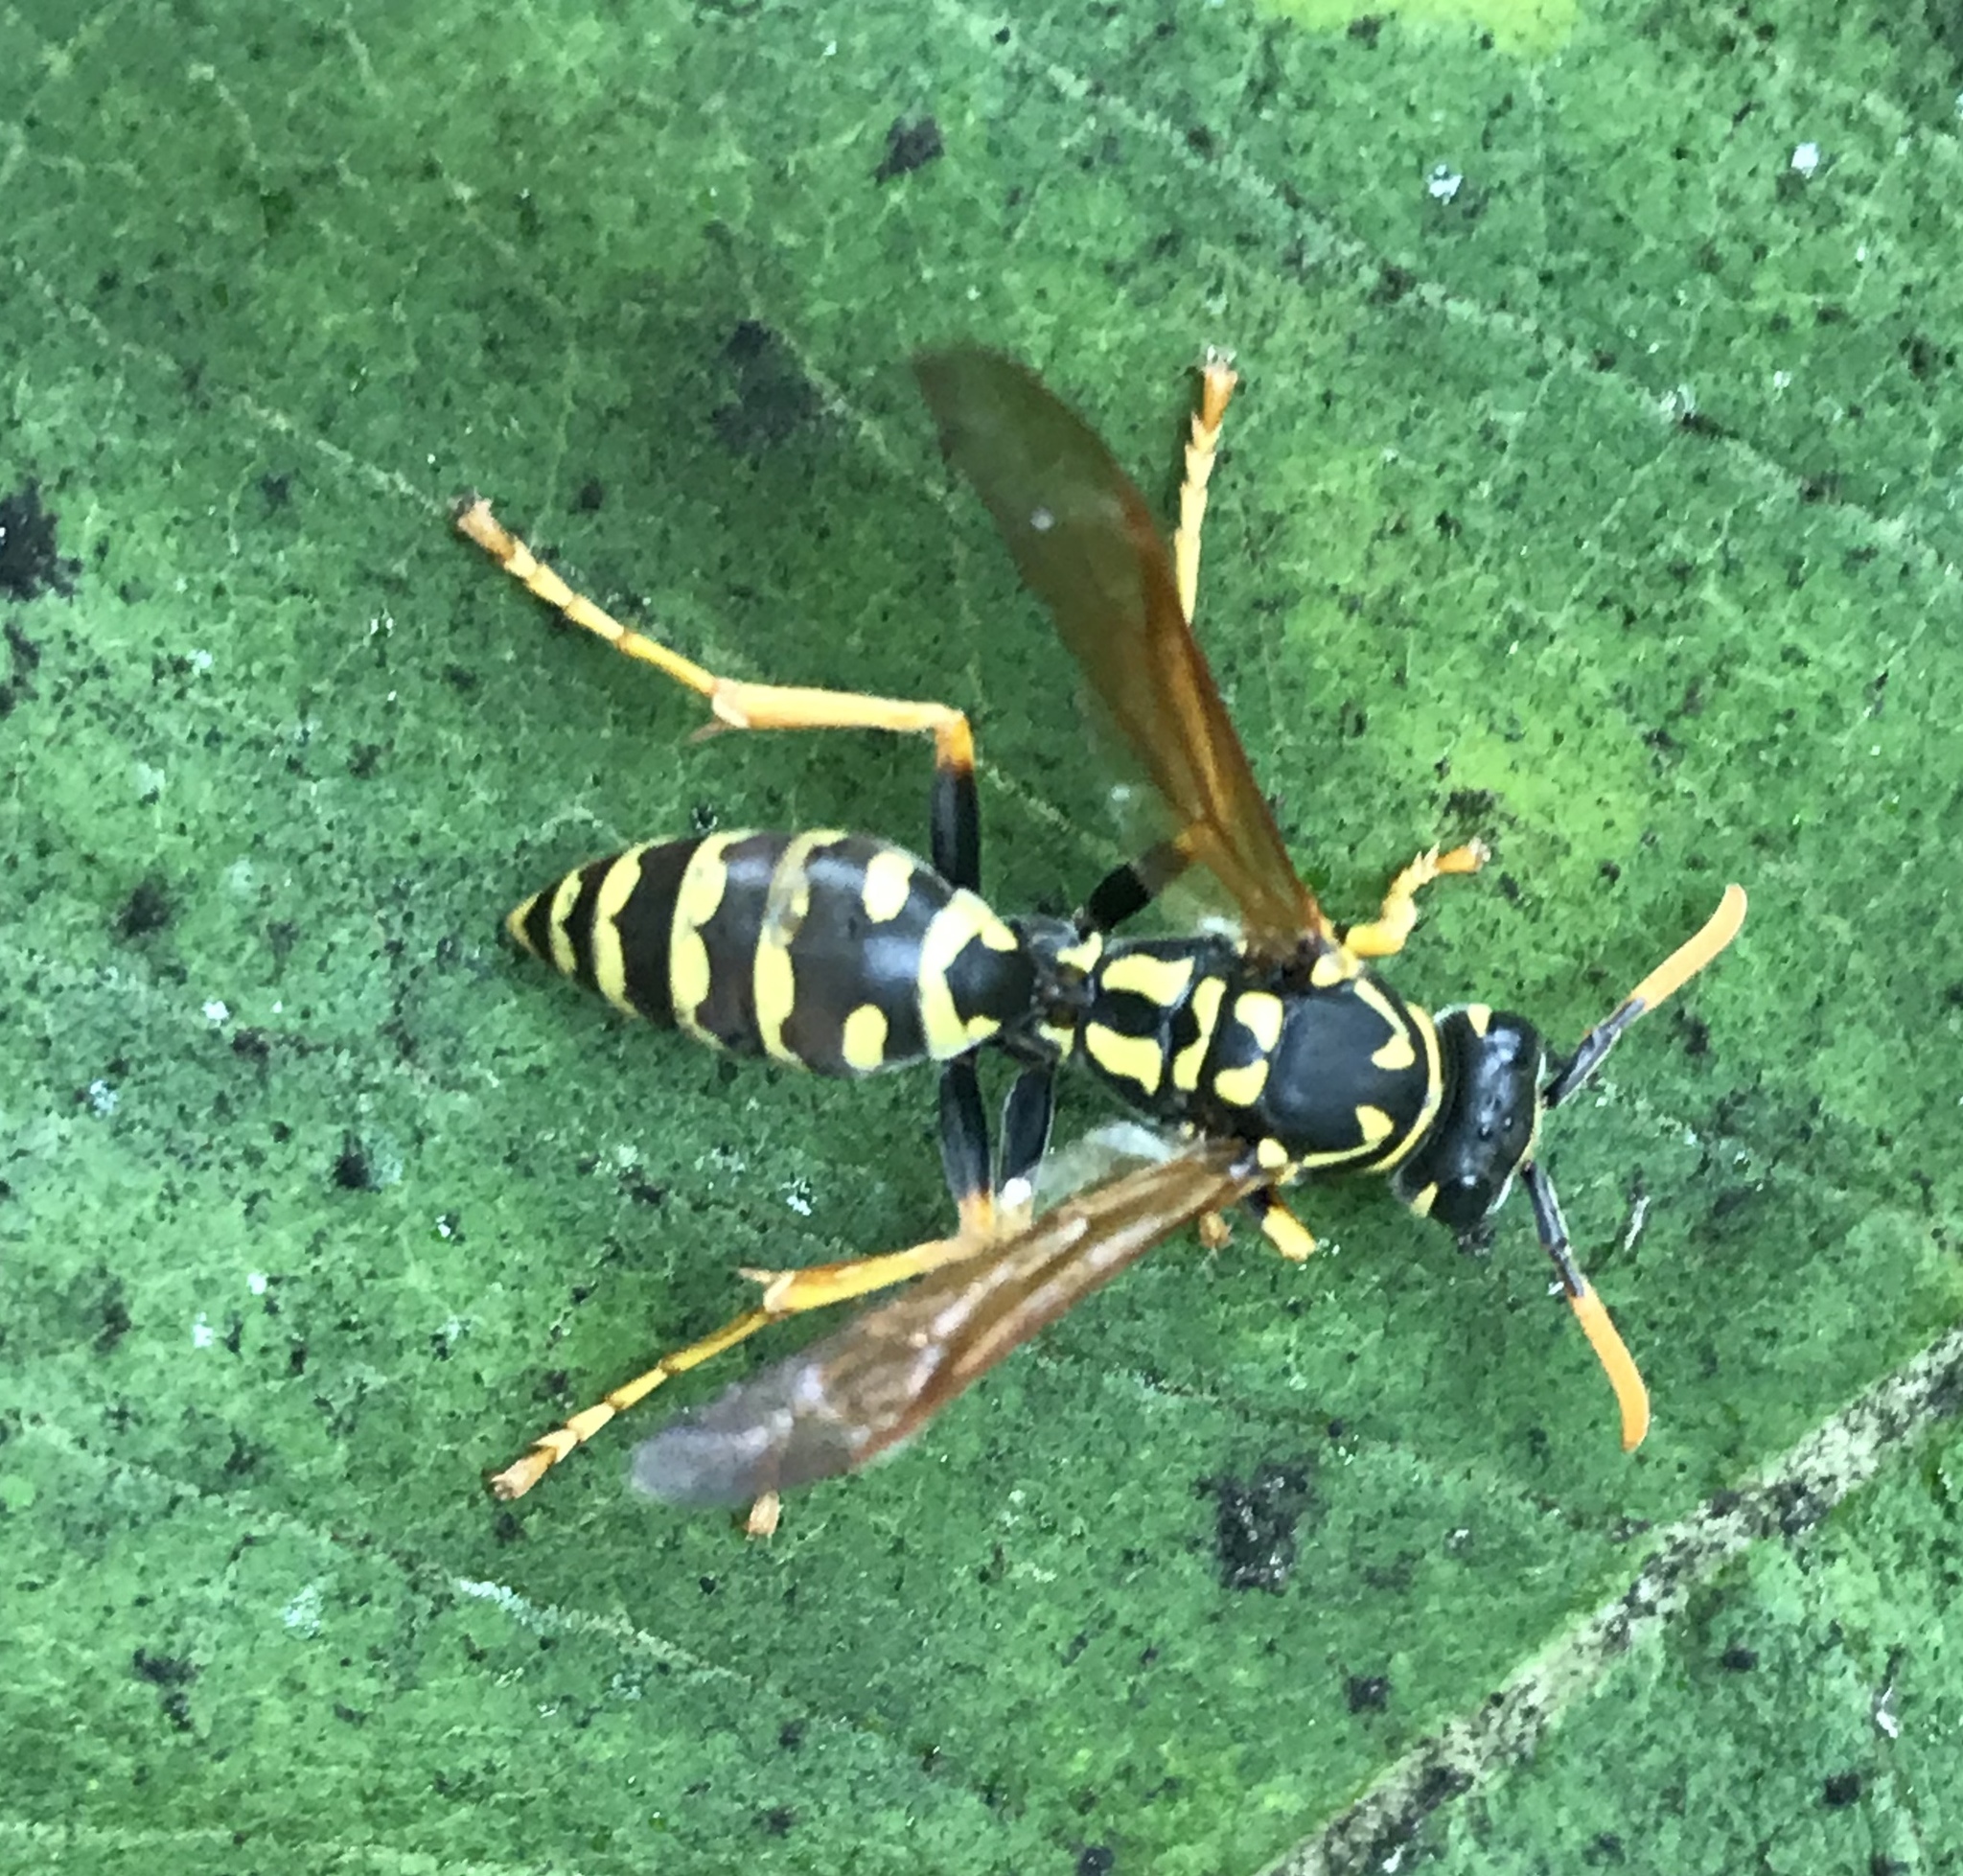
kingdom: Animalia
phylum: Arthropoda
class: Insecta
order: Hymenoptera
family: Eumenidae
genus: Polistes
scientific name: Polistes dominula
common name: Paper wasp
